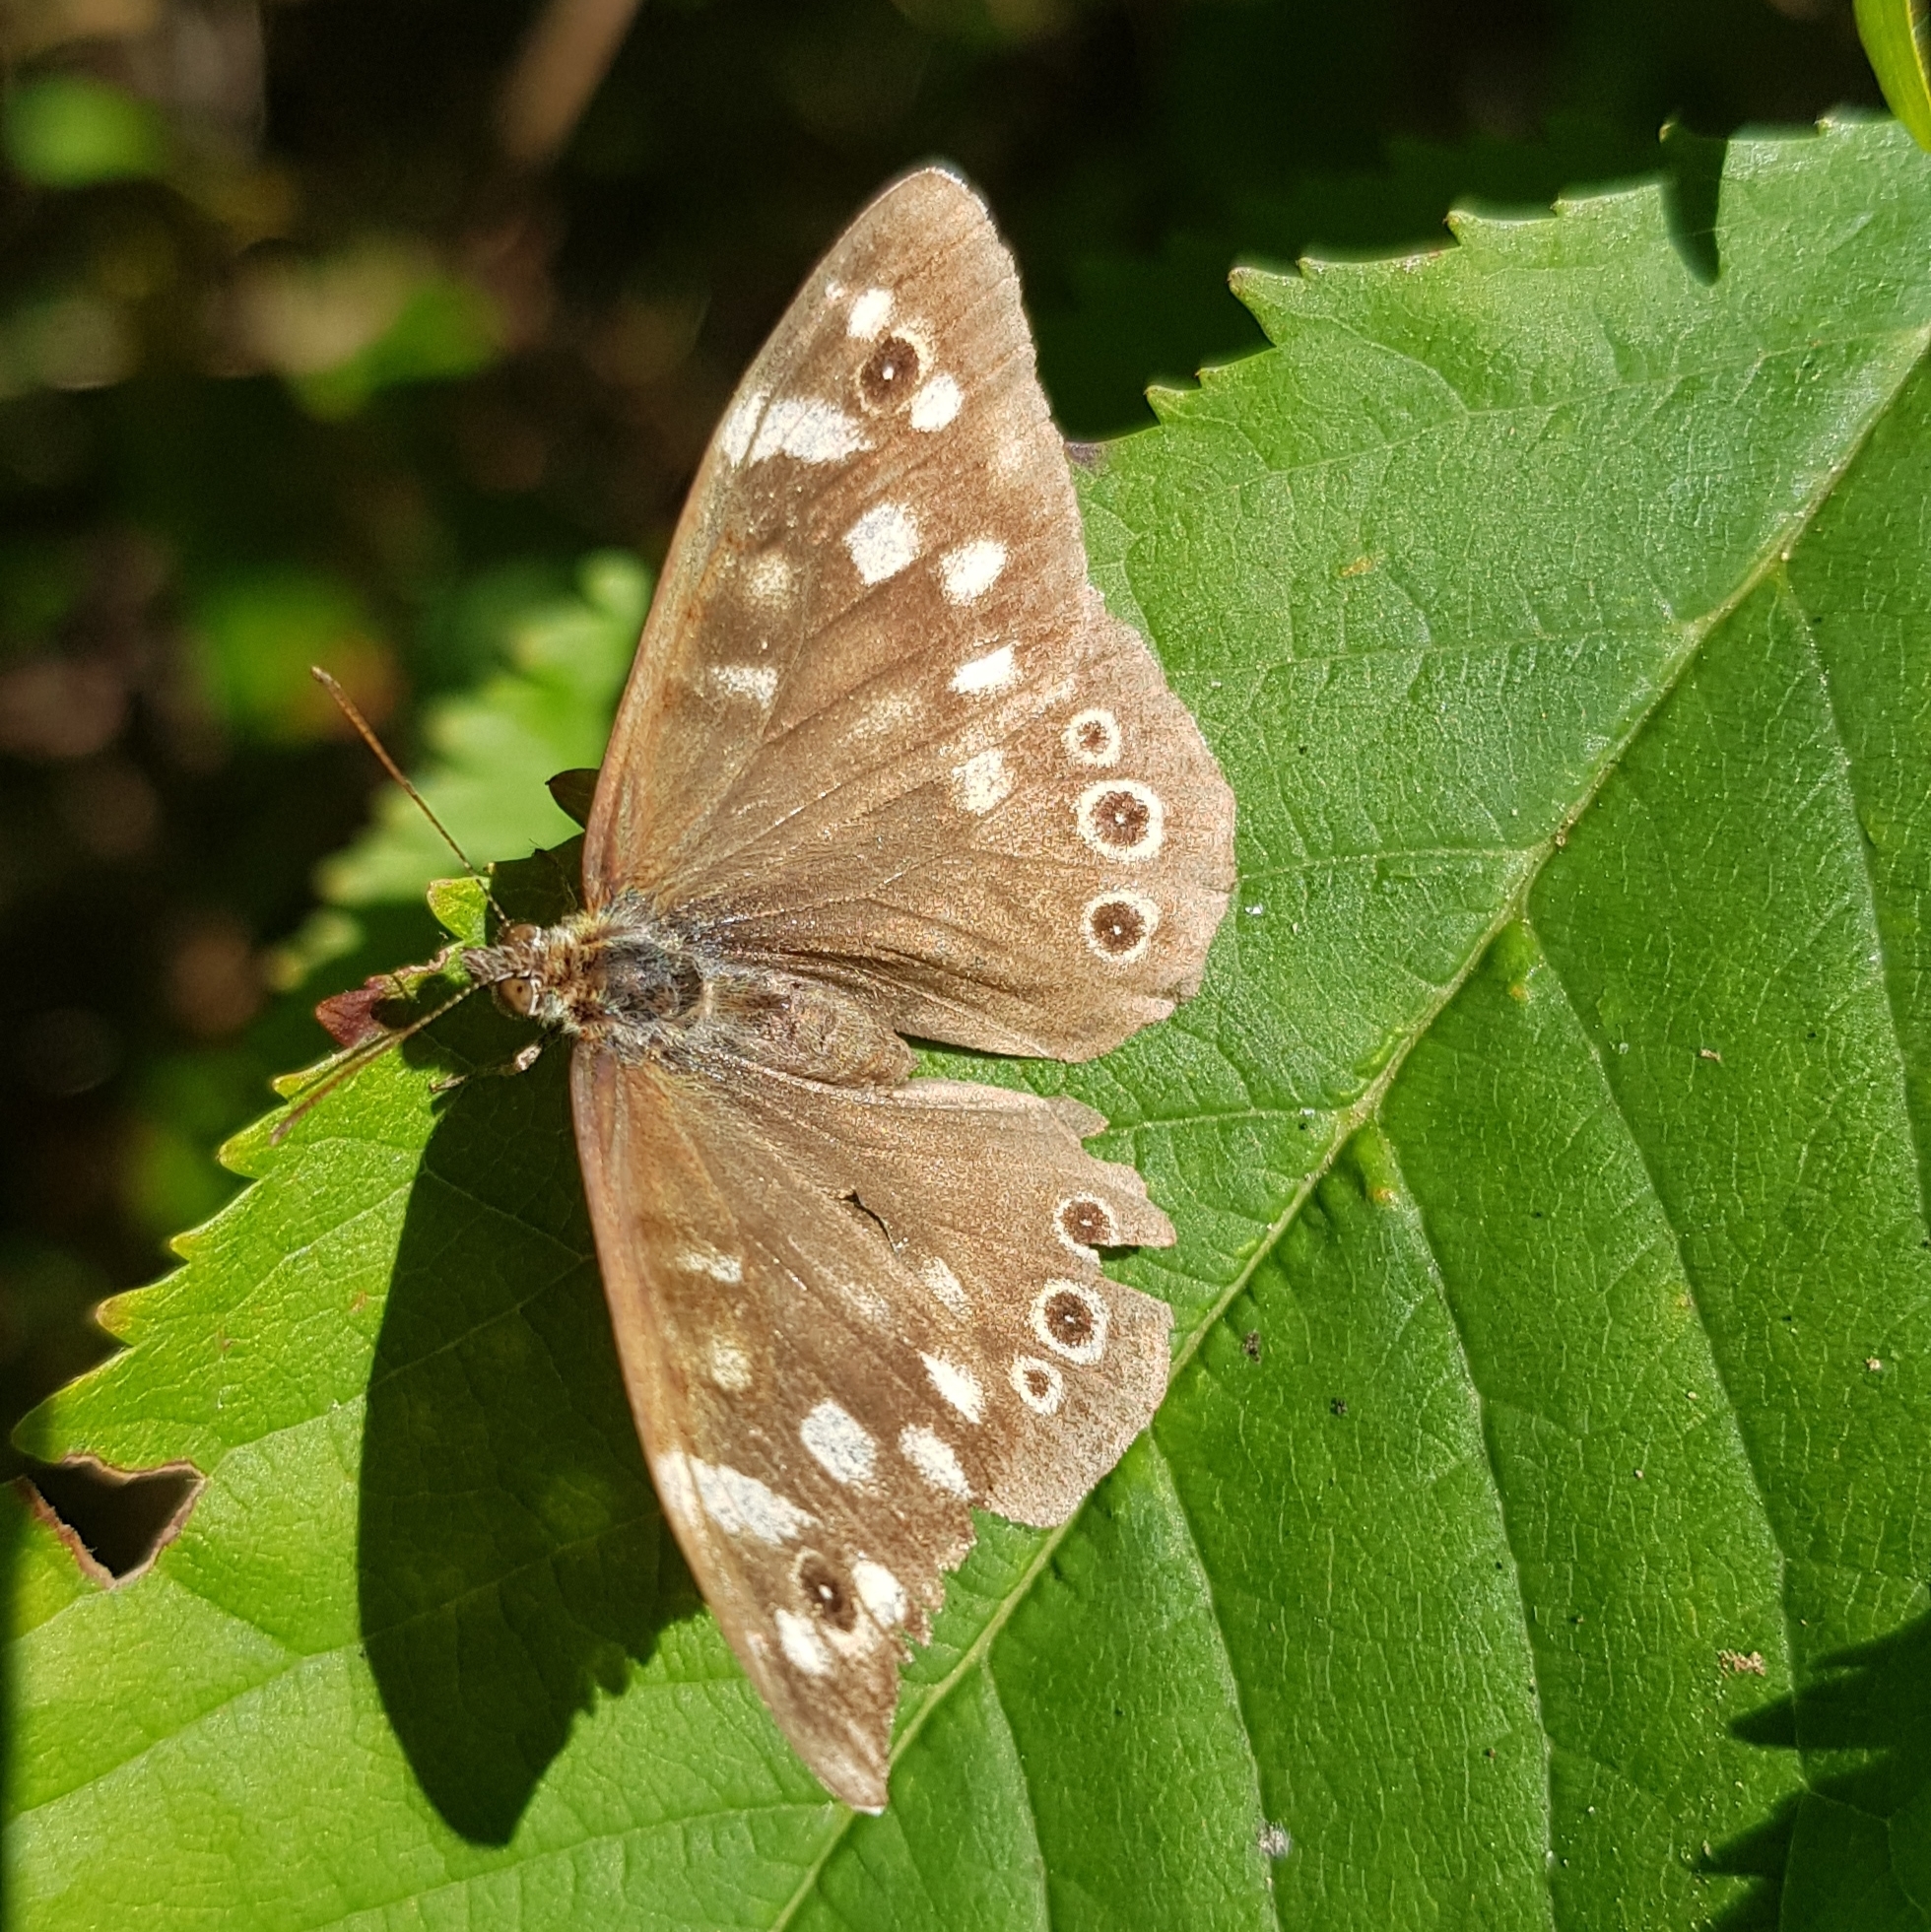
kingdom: Animalia
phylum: Arthropoda
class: Insecta
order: Lepidoptera
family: Nymphalidae
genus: Pararge
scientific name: Pararge aegeria
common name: Speckled wood
